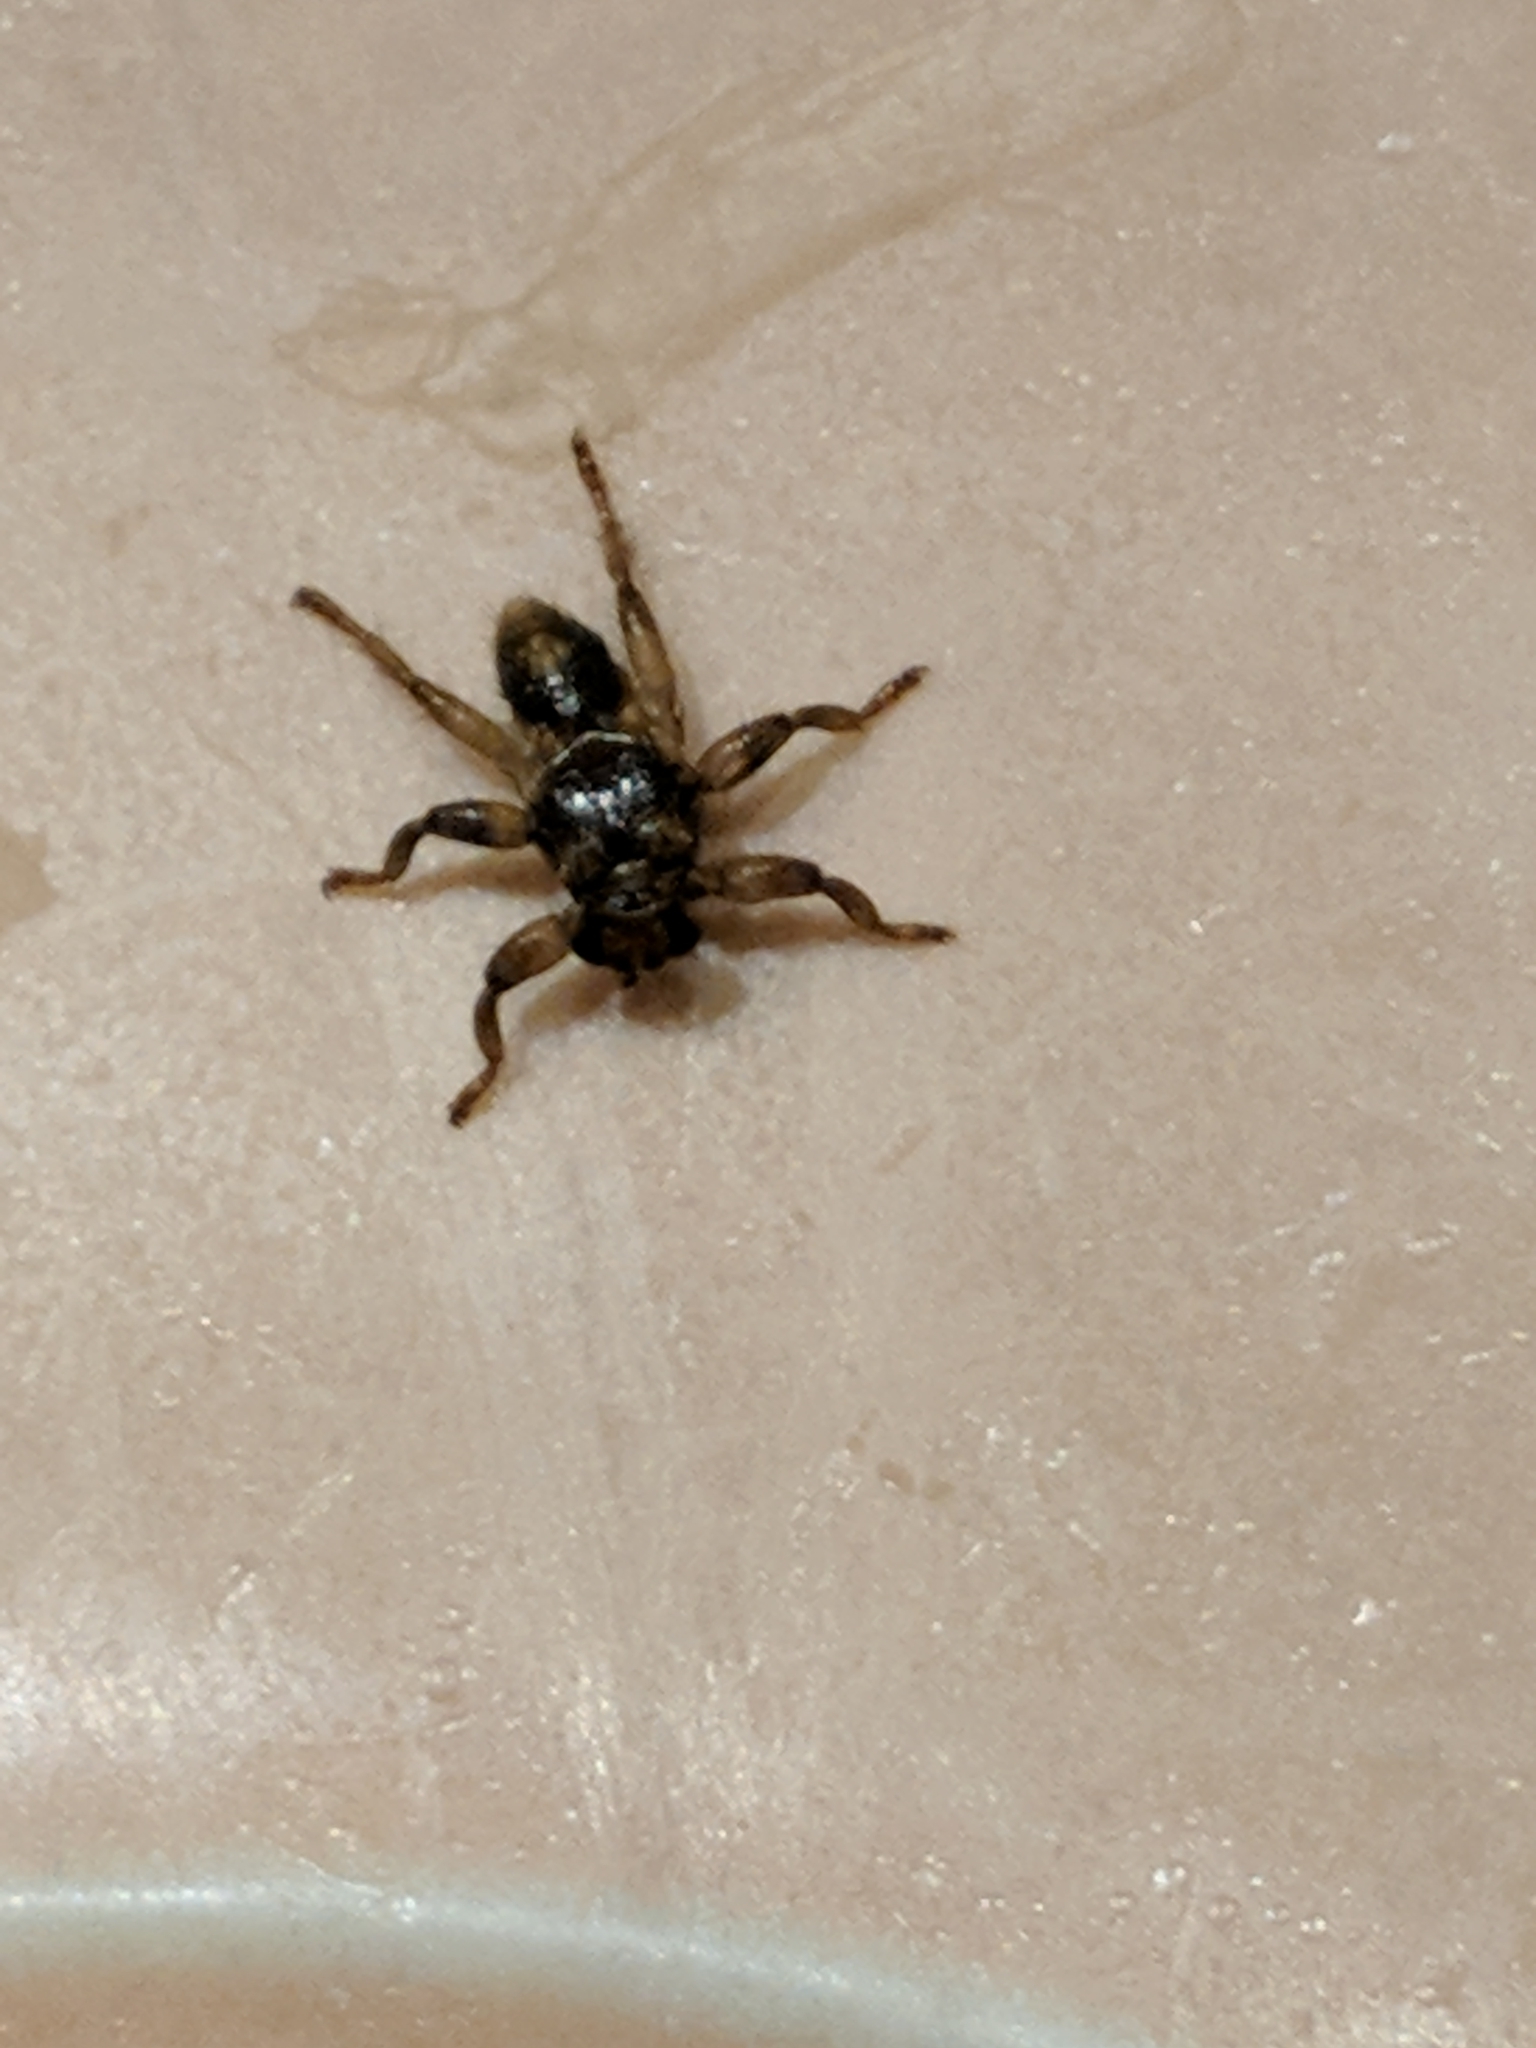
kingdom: Animalia
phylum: Arthropoda
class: Insecta
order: Diptera
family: Hippoboscidae
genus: Lipoptena
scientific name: Lipoptena cervi
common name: Deer ked
